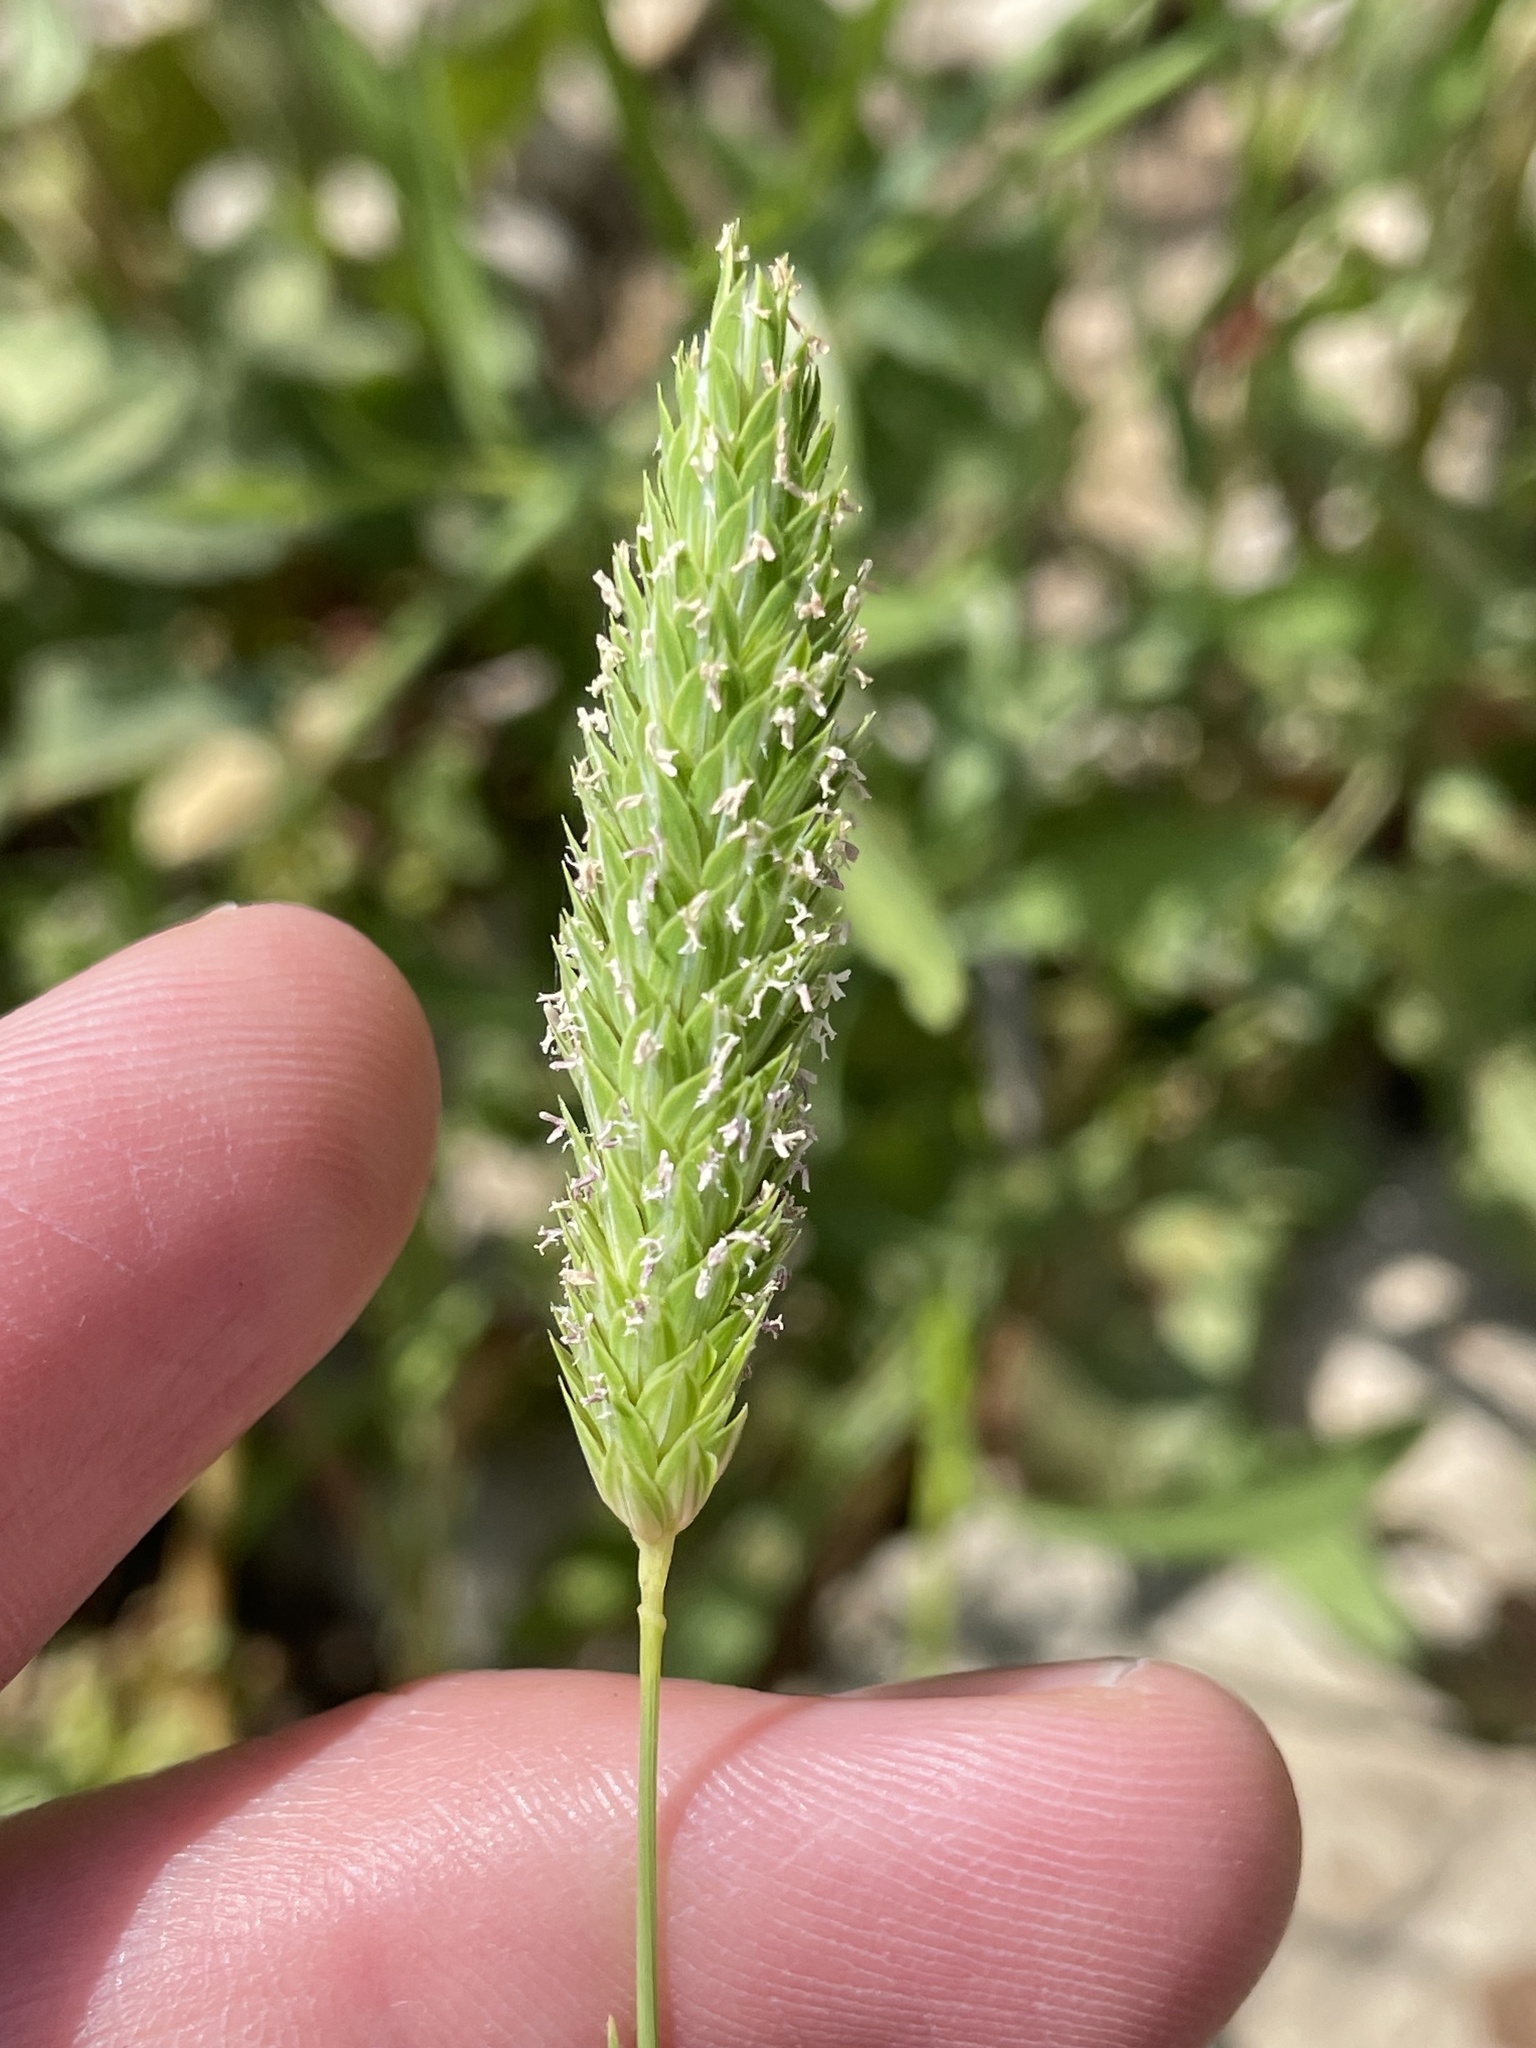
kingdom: Plantae
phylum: Tracheophyta
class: Liliopsida
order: Poales
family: Poaceae
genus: Phalaris
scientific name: Phalaris caroliniana
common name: May grass
